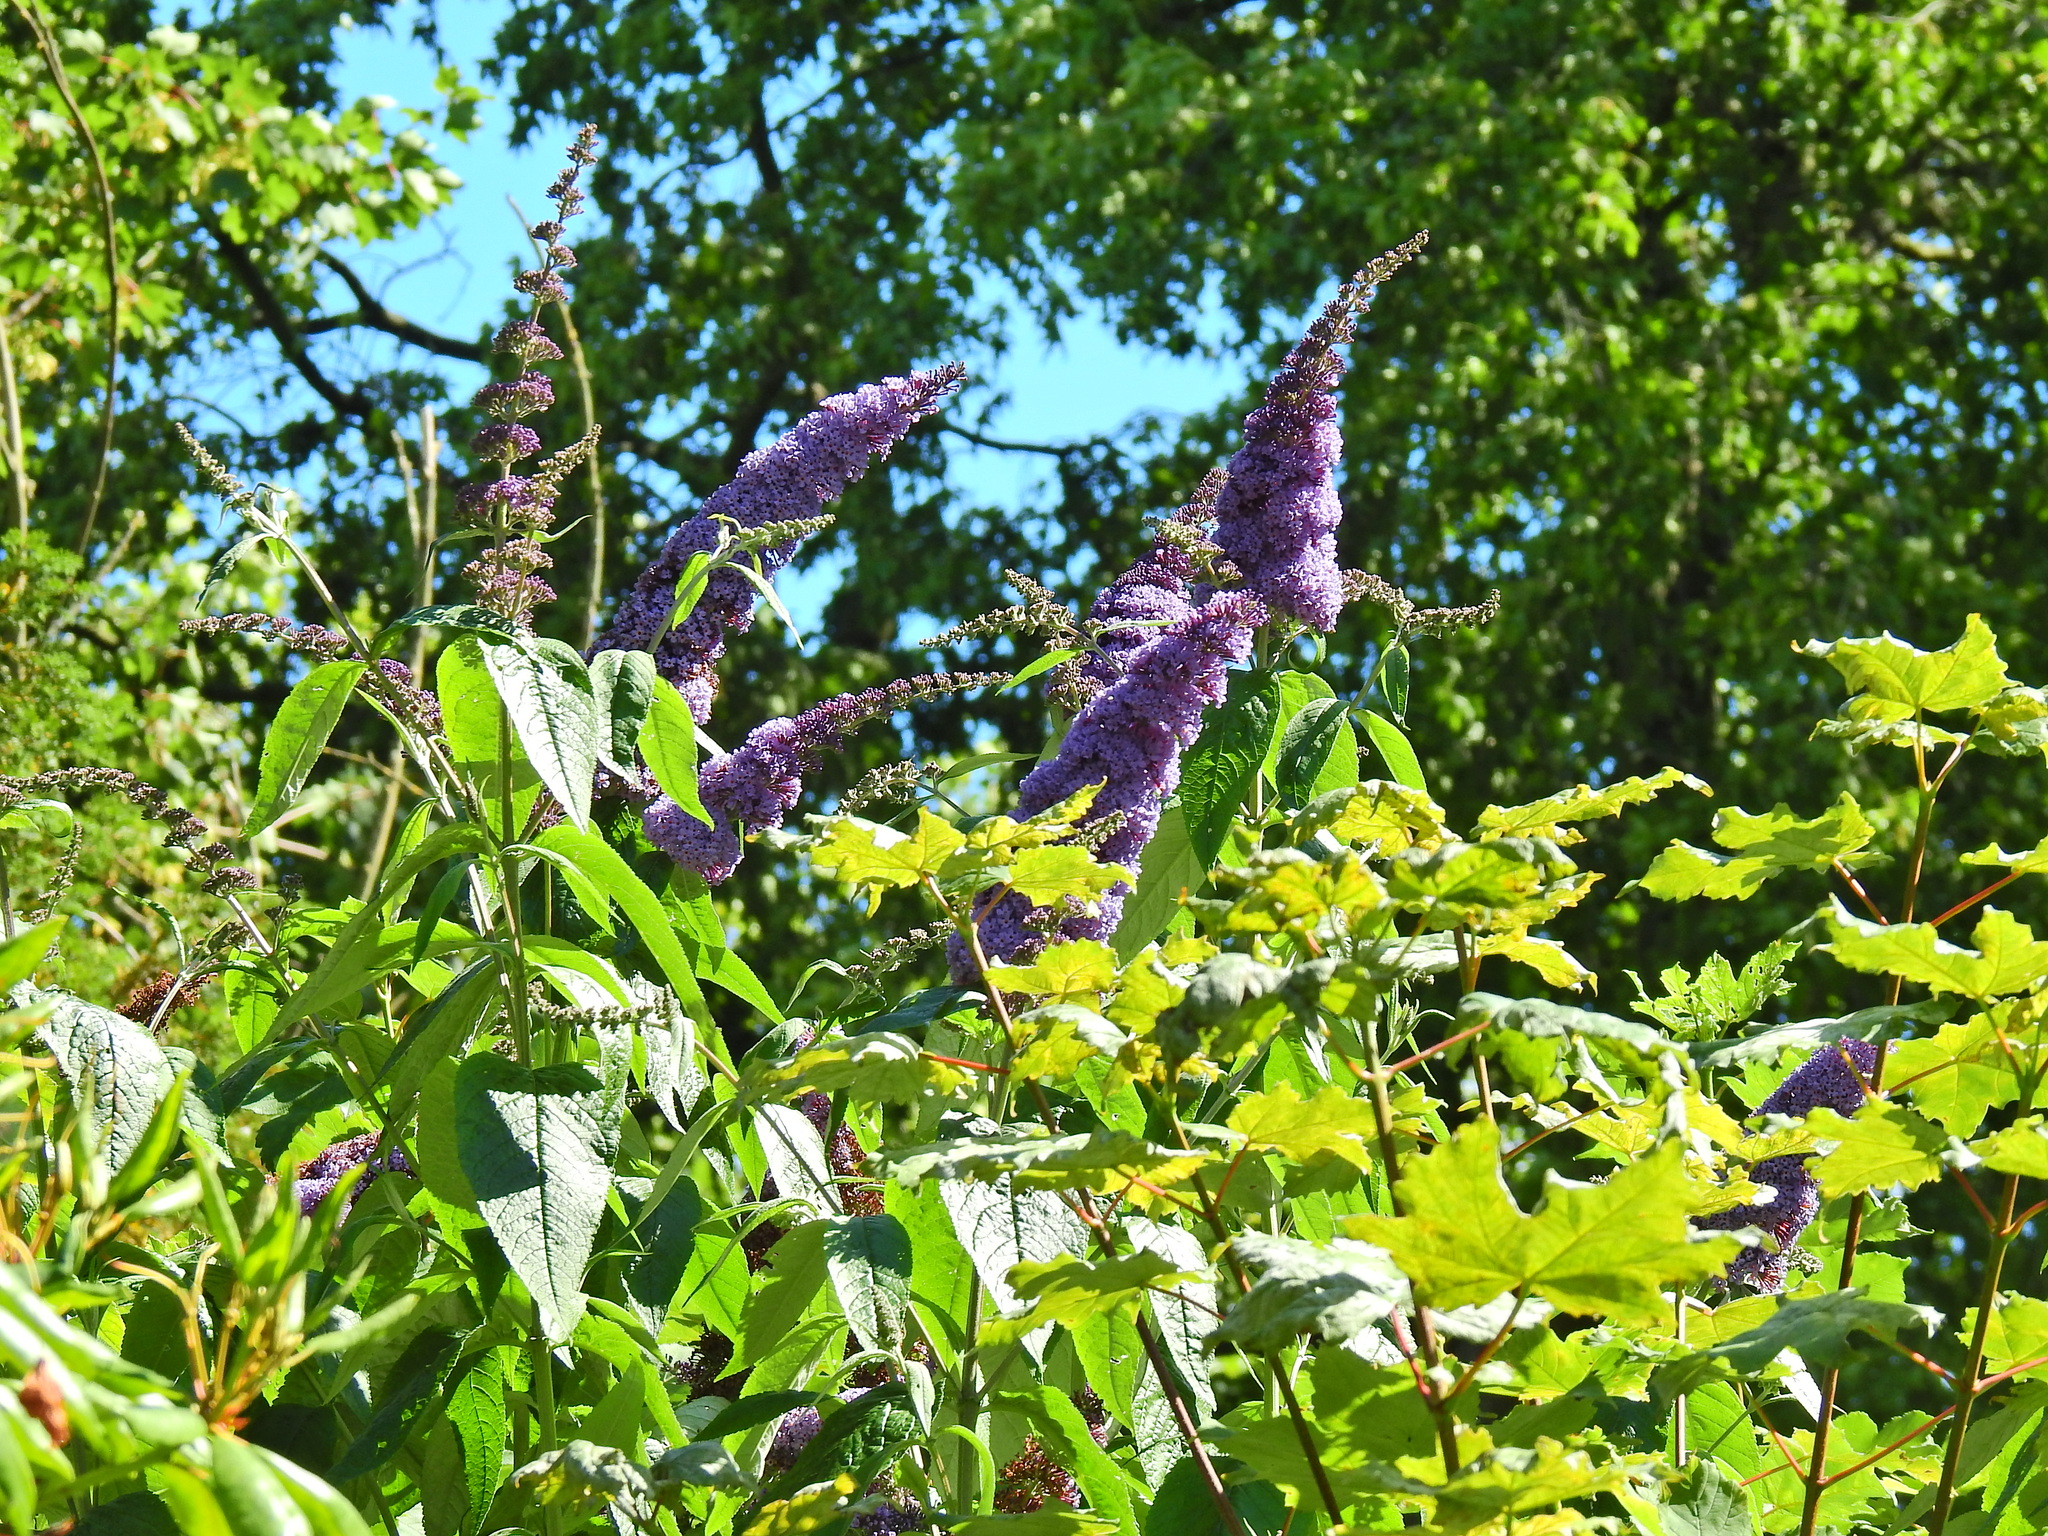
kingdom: Plantae
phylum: Tracheophyta
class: Magnoliopsida
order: Lamiales
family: Scrophulariaceae
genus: Buddleja
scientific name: Buddleja davidii
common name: Butterfly-bush
